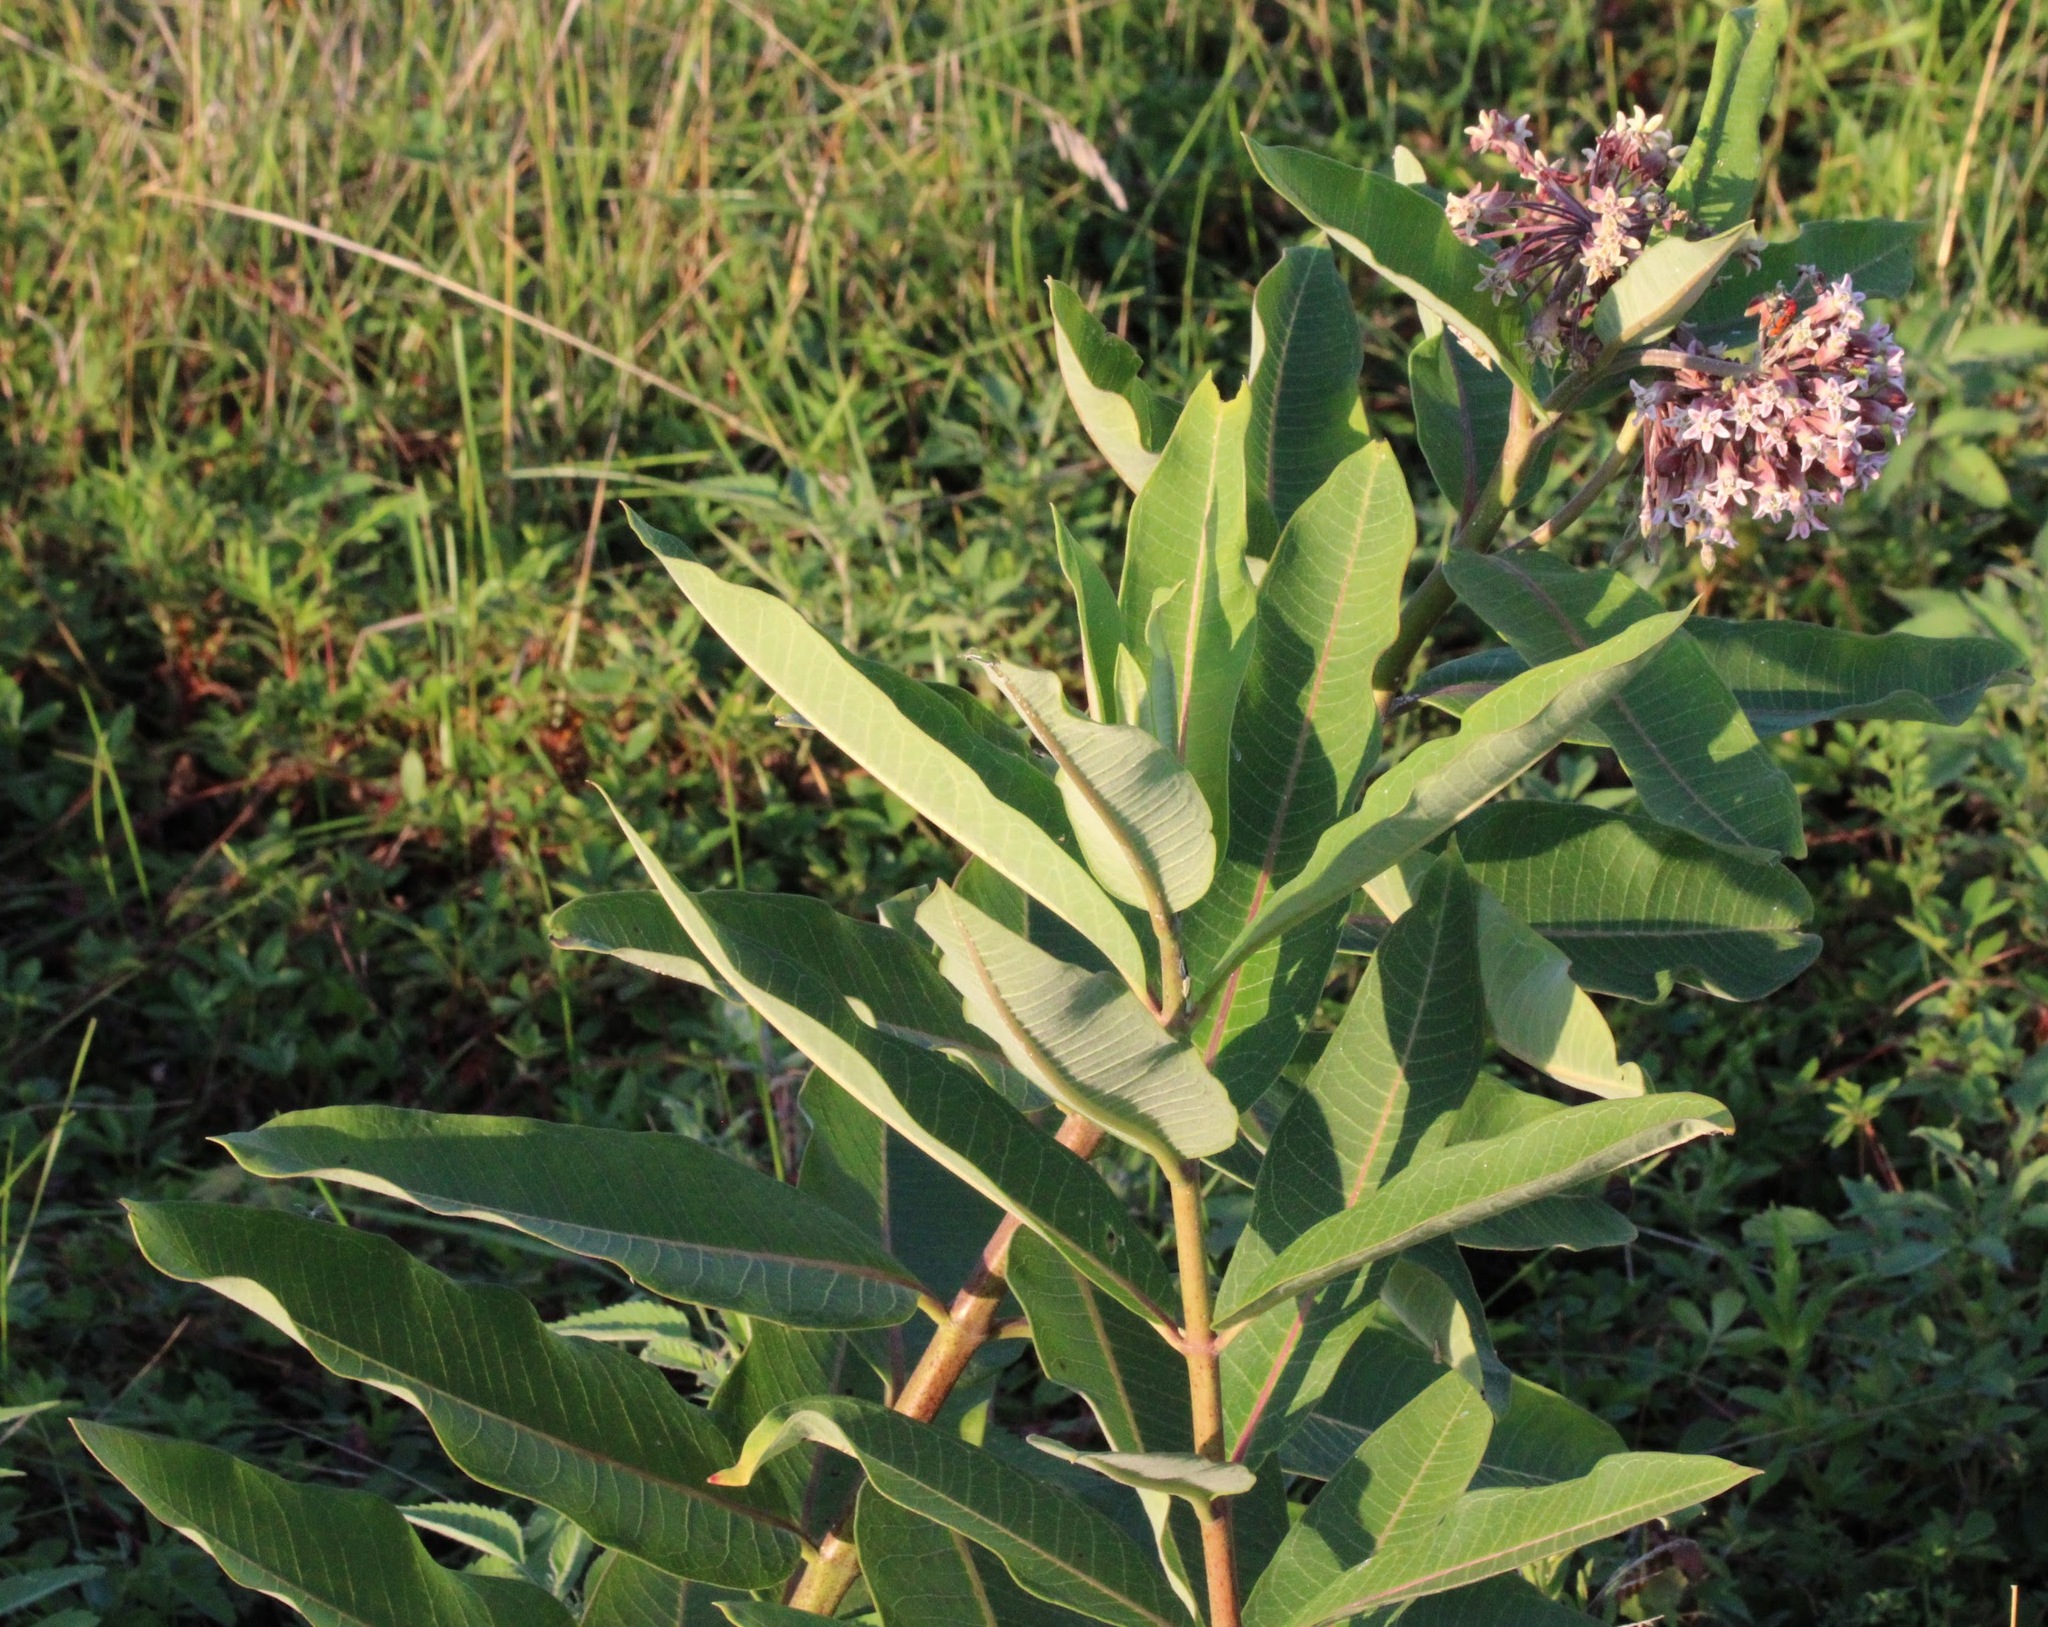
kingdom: Plantae
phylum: Tracheophyta
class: Magnoliopsida
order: Gentianales
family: Apocynaceae
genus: Asclepias
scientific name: Asclepias syriaca
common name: Common milkweed
